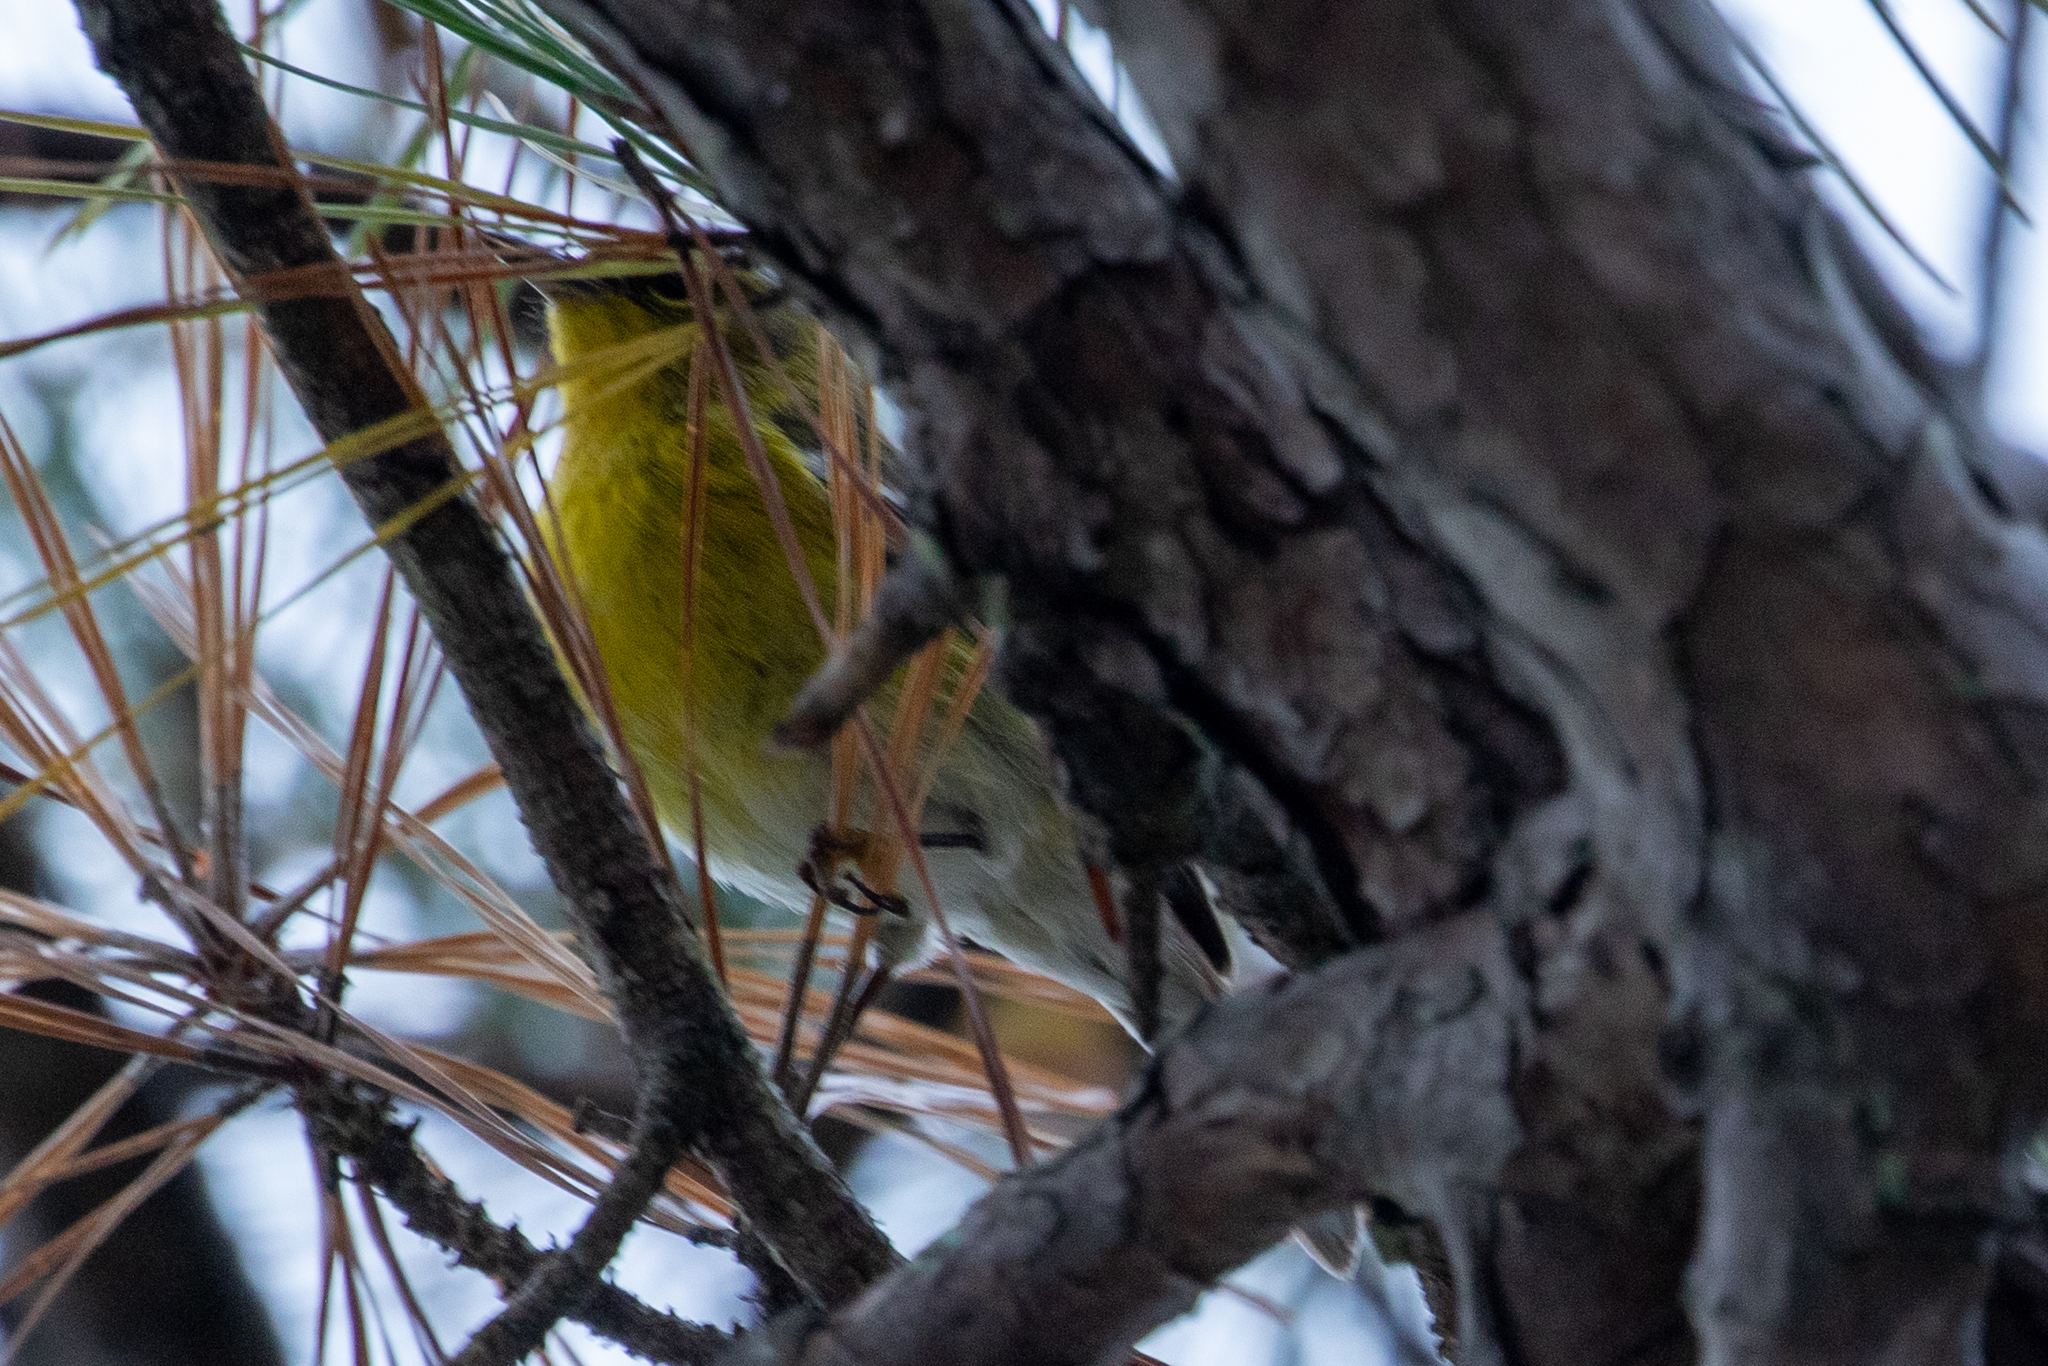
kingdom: Animalia
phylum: Chordata
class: Aves
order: Passeriformes
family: Parulidae
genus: Setophaga
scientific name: Setophaga pinus
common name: Pine warbler
